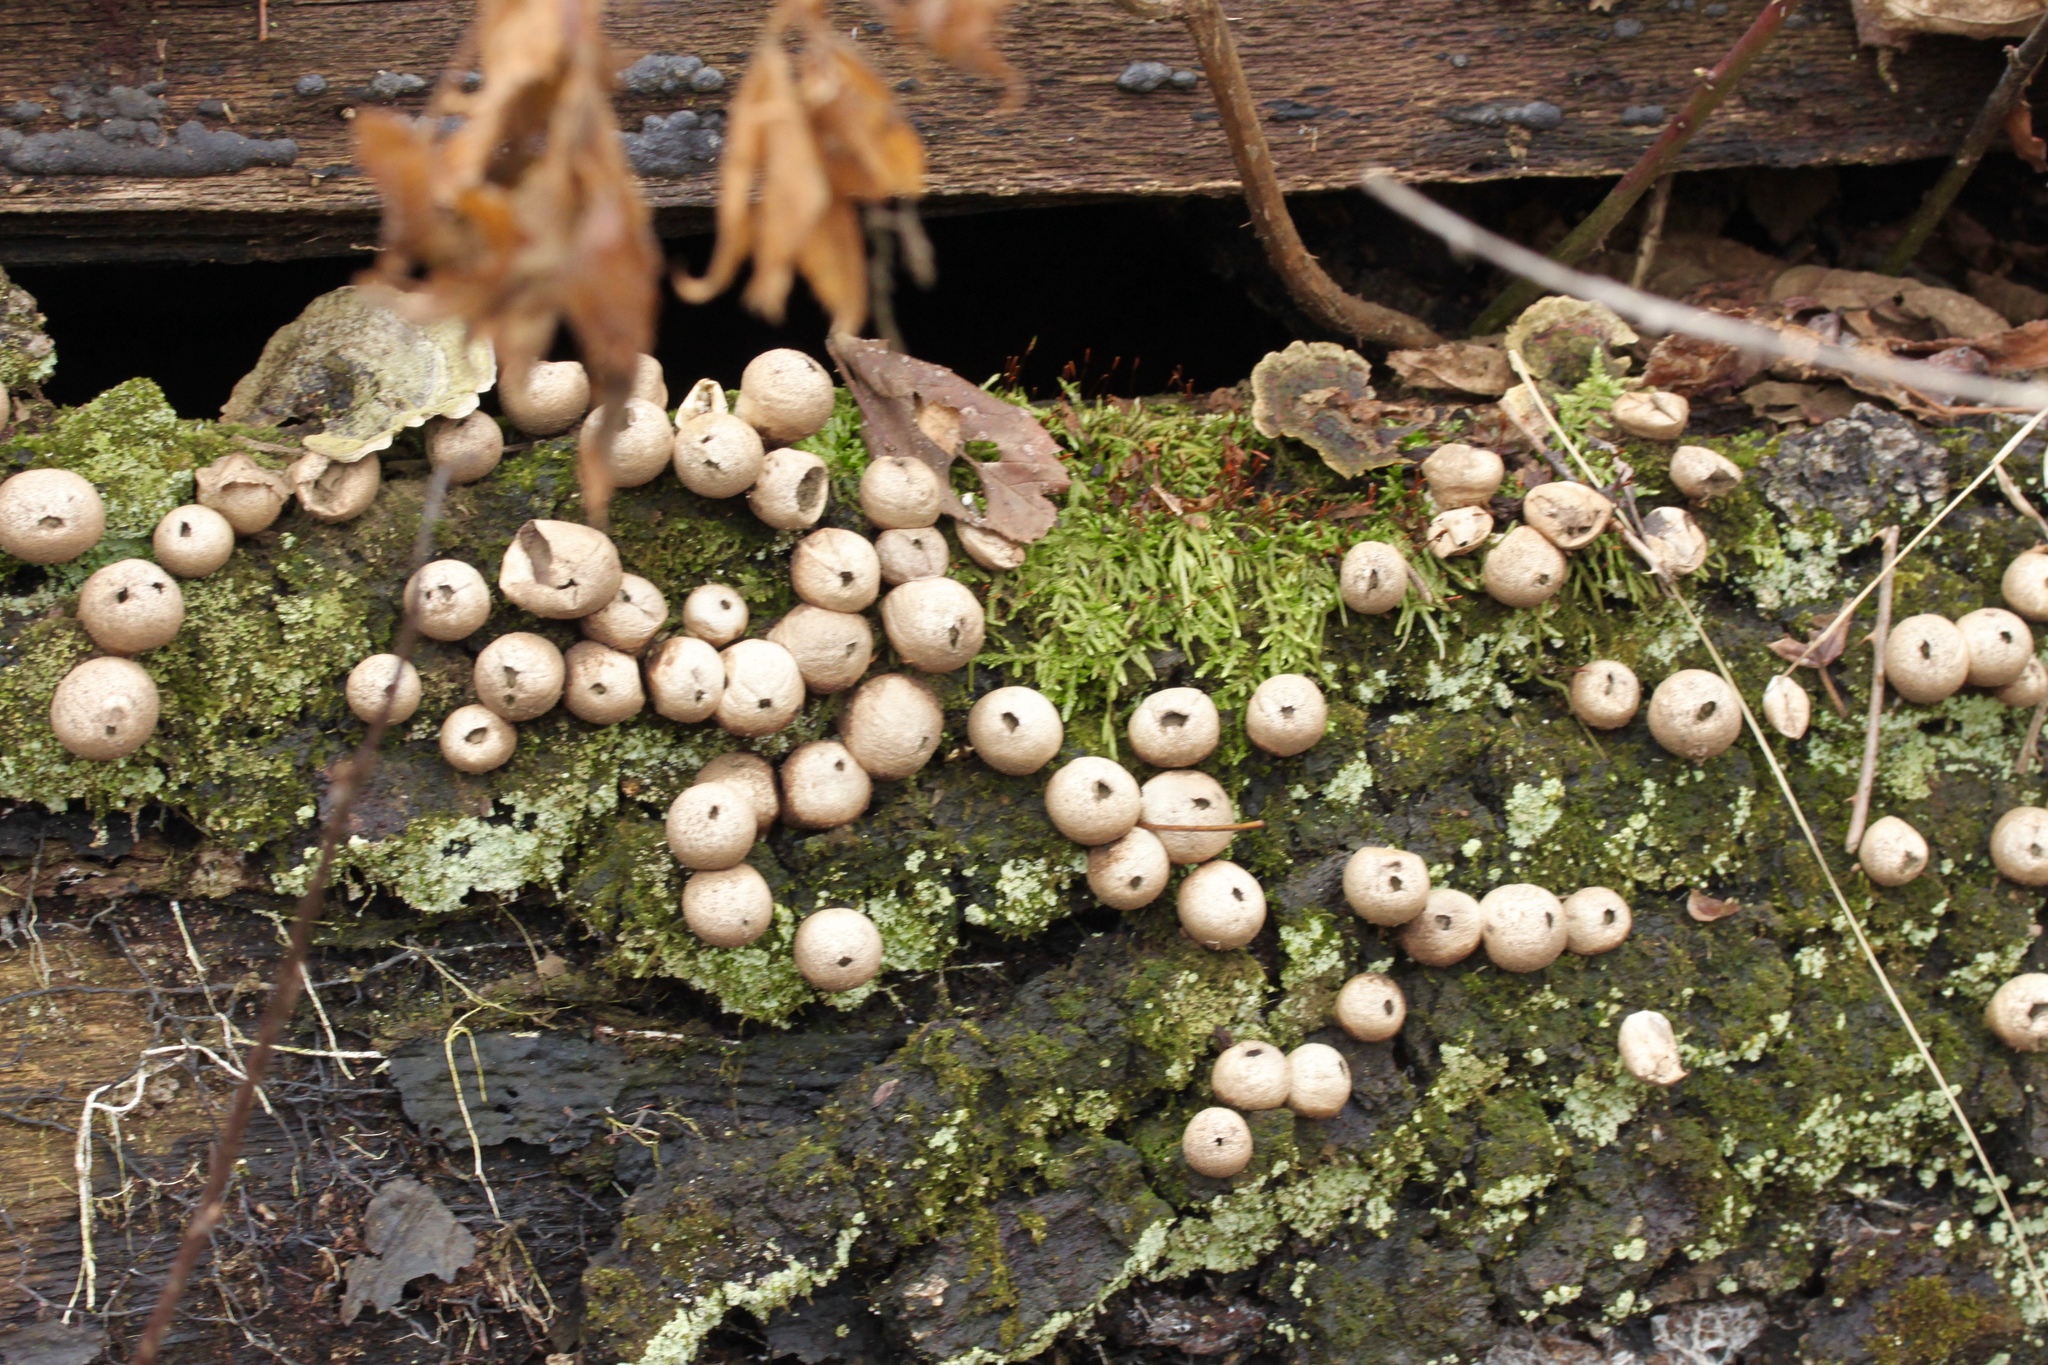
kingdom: Fungi
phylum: Basidiomycota
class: Agaricomycetes
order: Agaricales
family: Lycoperdaceae
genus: Apioperdon
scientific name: Apioperdon pyriforme
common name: Pear-shaped puffball
